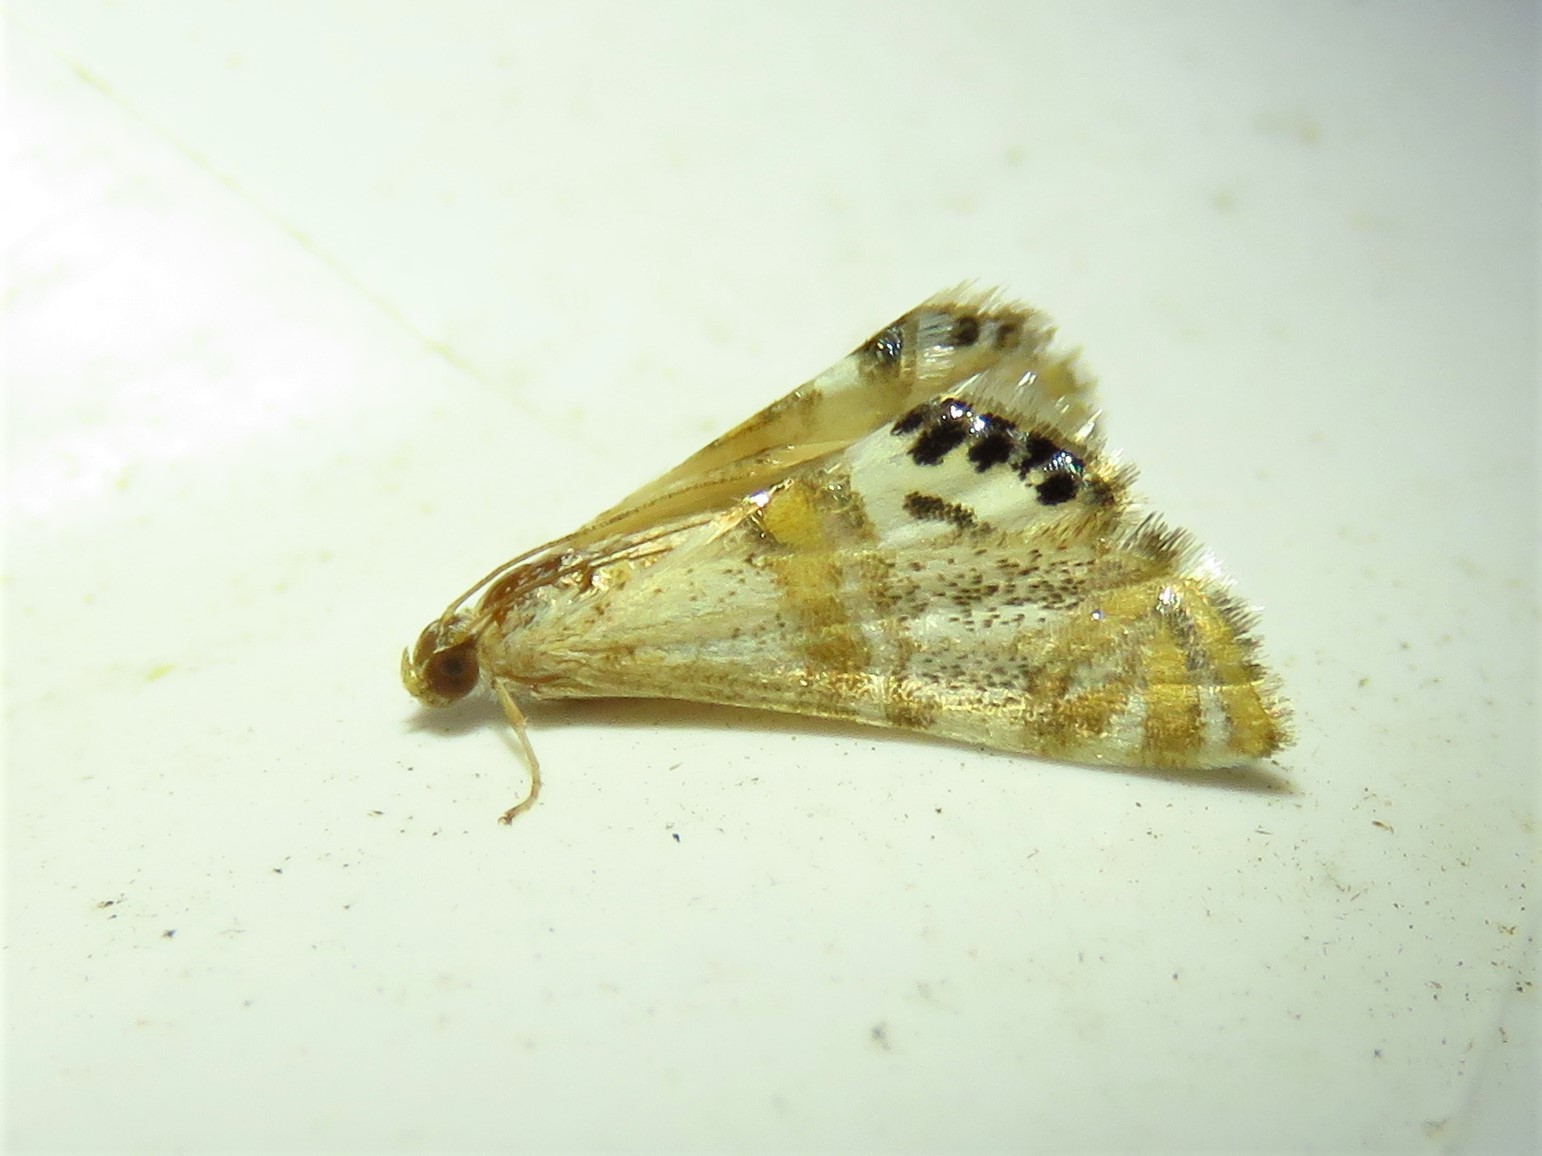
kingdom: Animalia
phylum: Arthropoda
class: Insecta
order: Lepidoptera
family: Crambidae
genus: Petrophila
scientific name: Petrophila bifascialis
